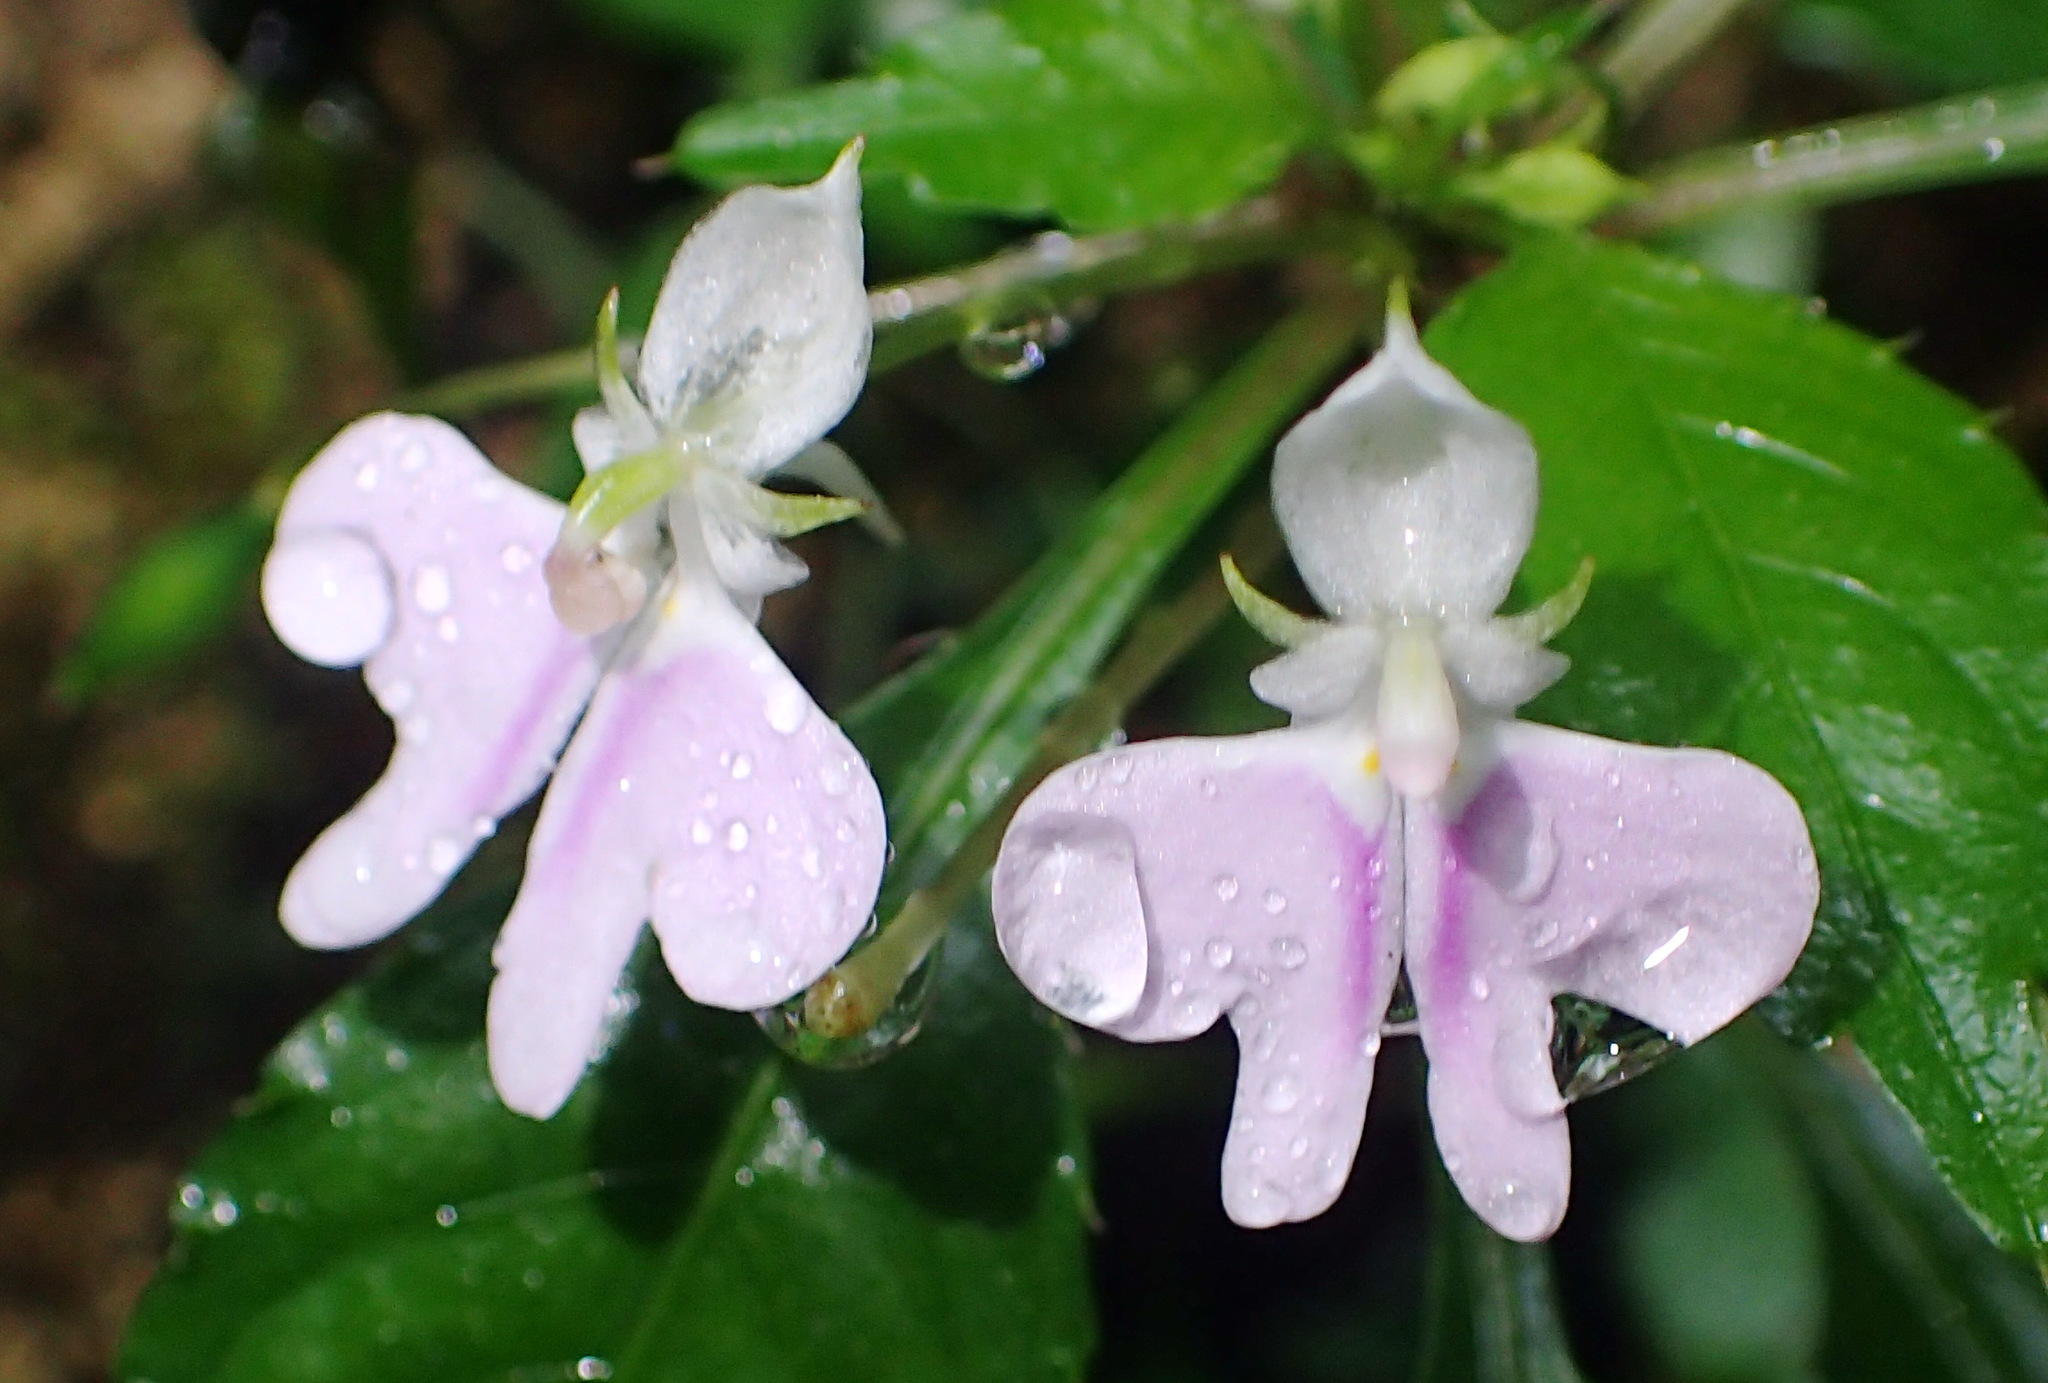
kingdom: Plantae
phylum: Tracheophyta
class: Magnoliopsida
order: Ericales
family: Balsaminaceae
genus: Impatiens
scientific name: Impatiens hochstetteri
